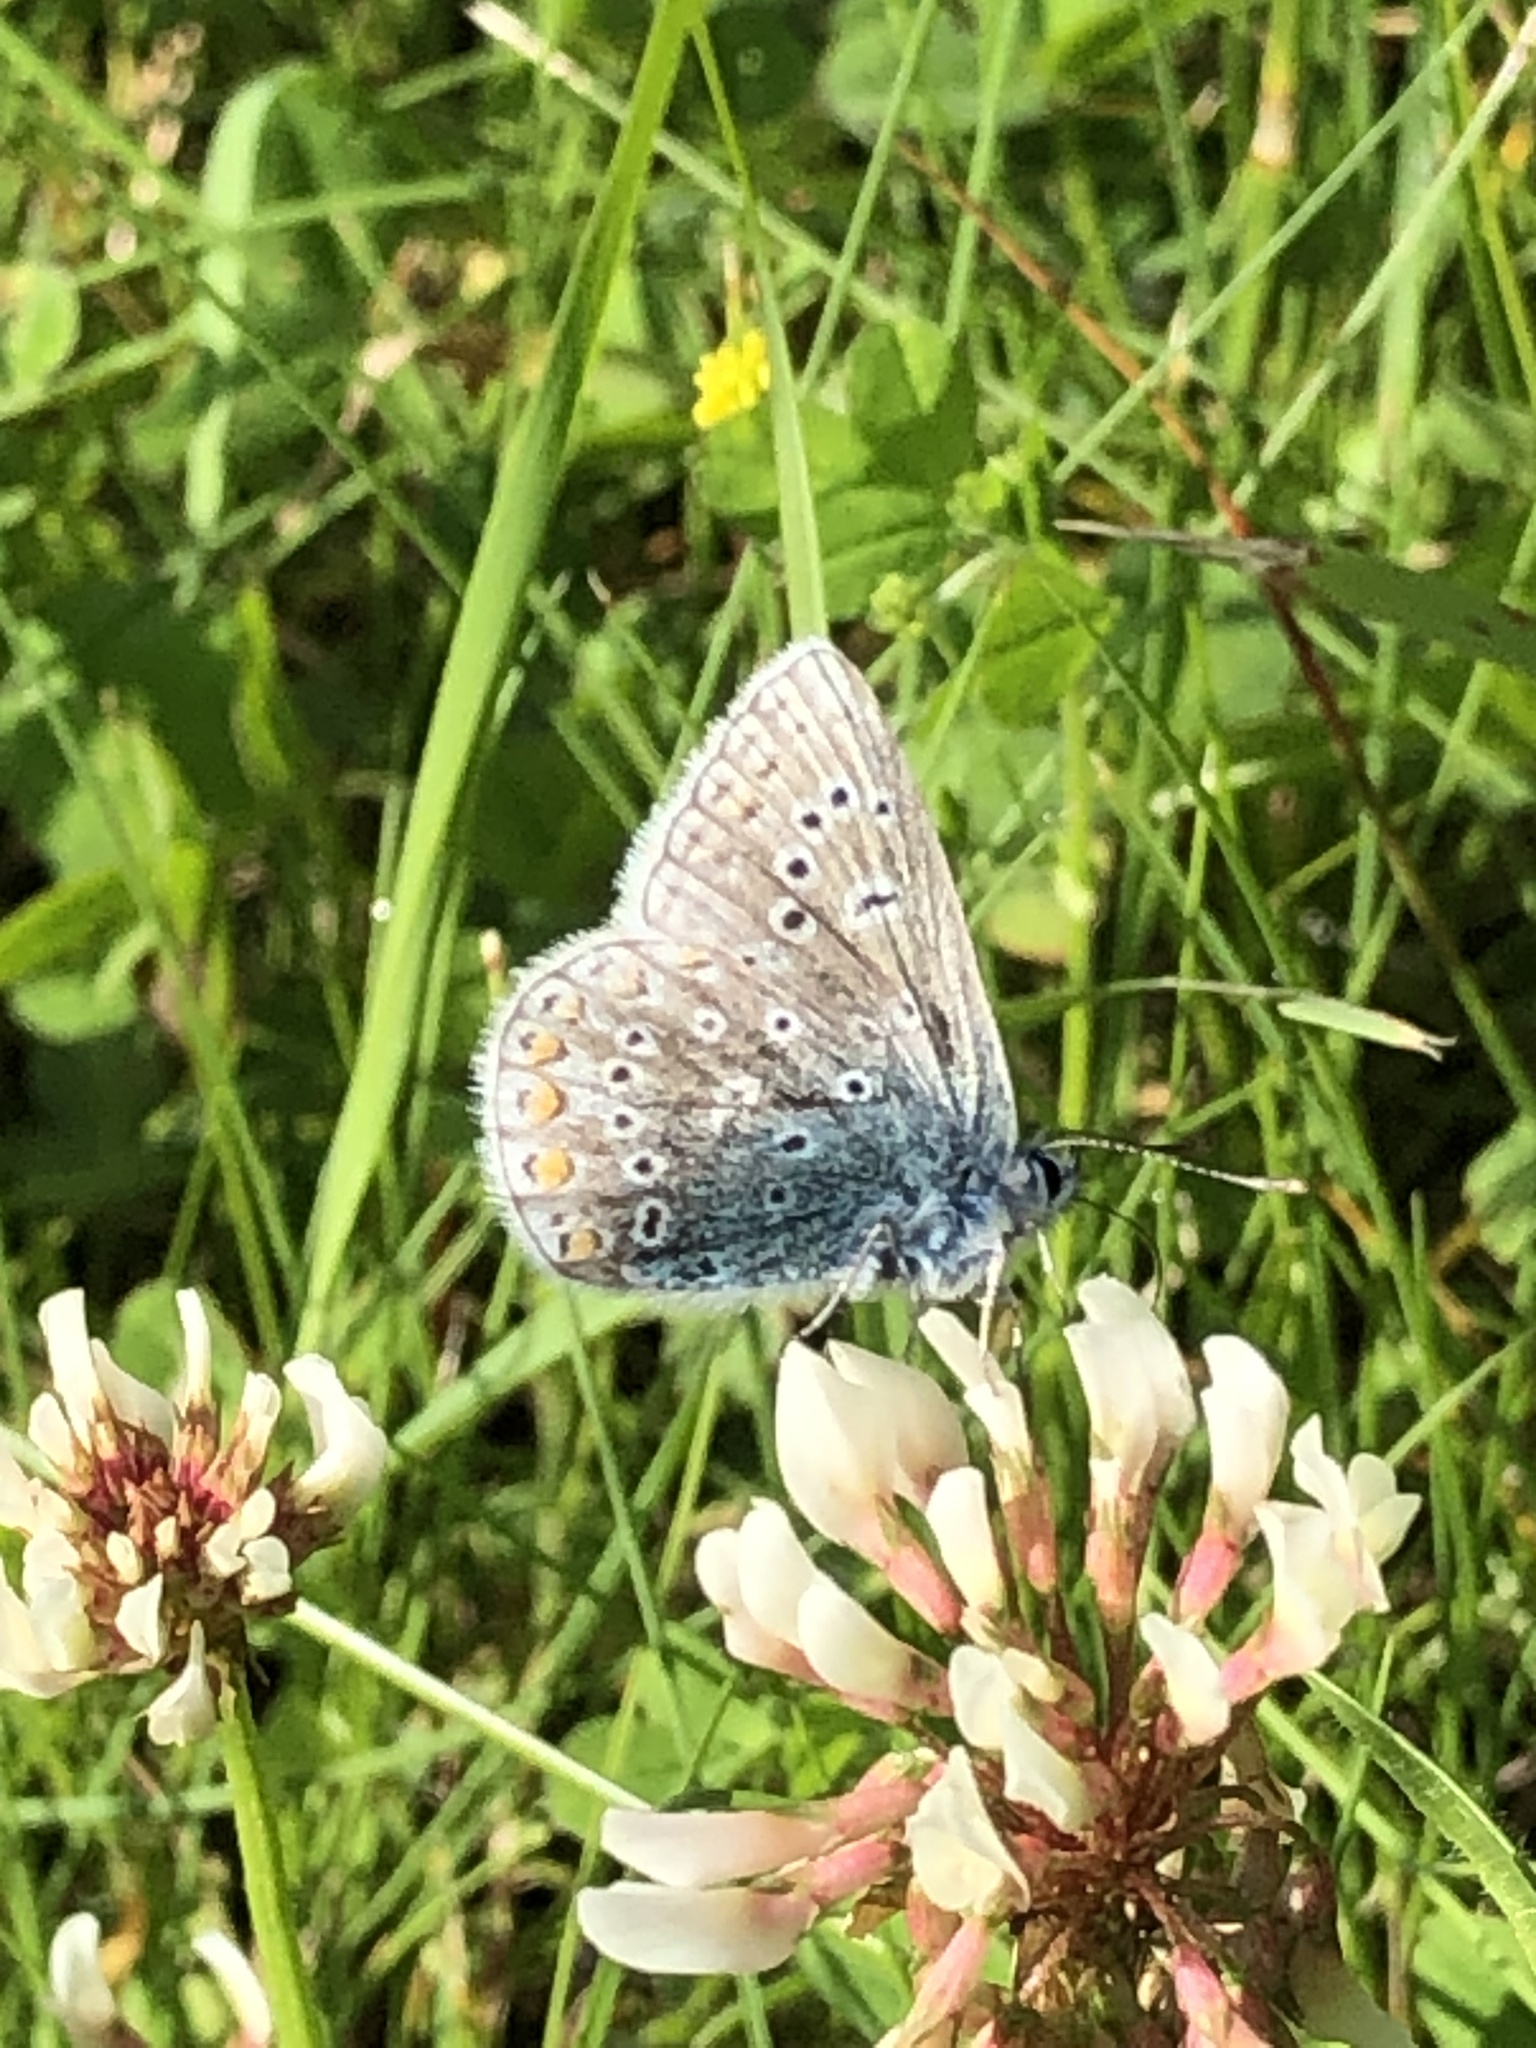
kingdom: Animalia
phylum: Arthropoda
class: Insecta
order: Lepidoptera
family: Lycaenidae
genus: Polyommatus
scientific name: Polyommatus icarus
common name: Common blue
